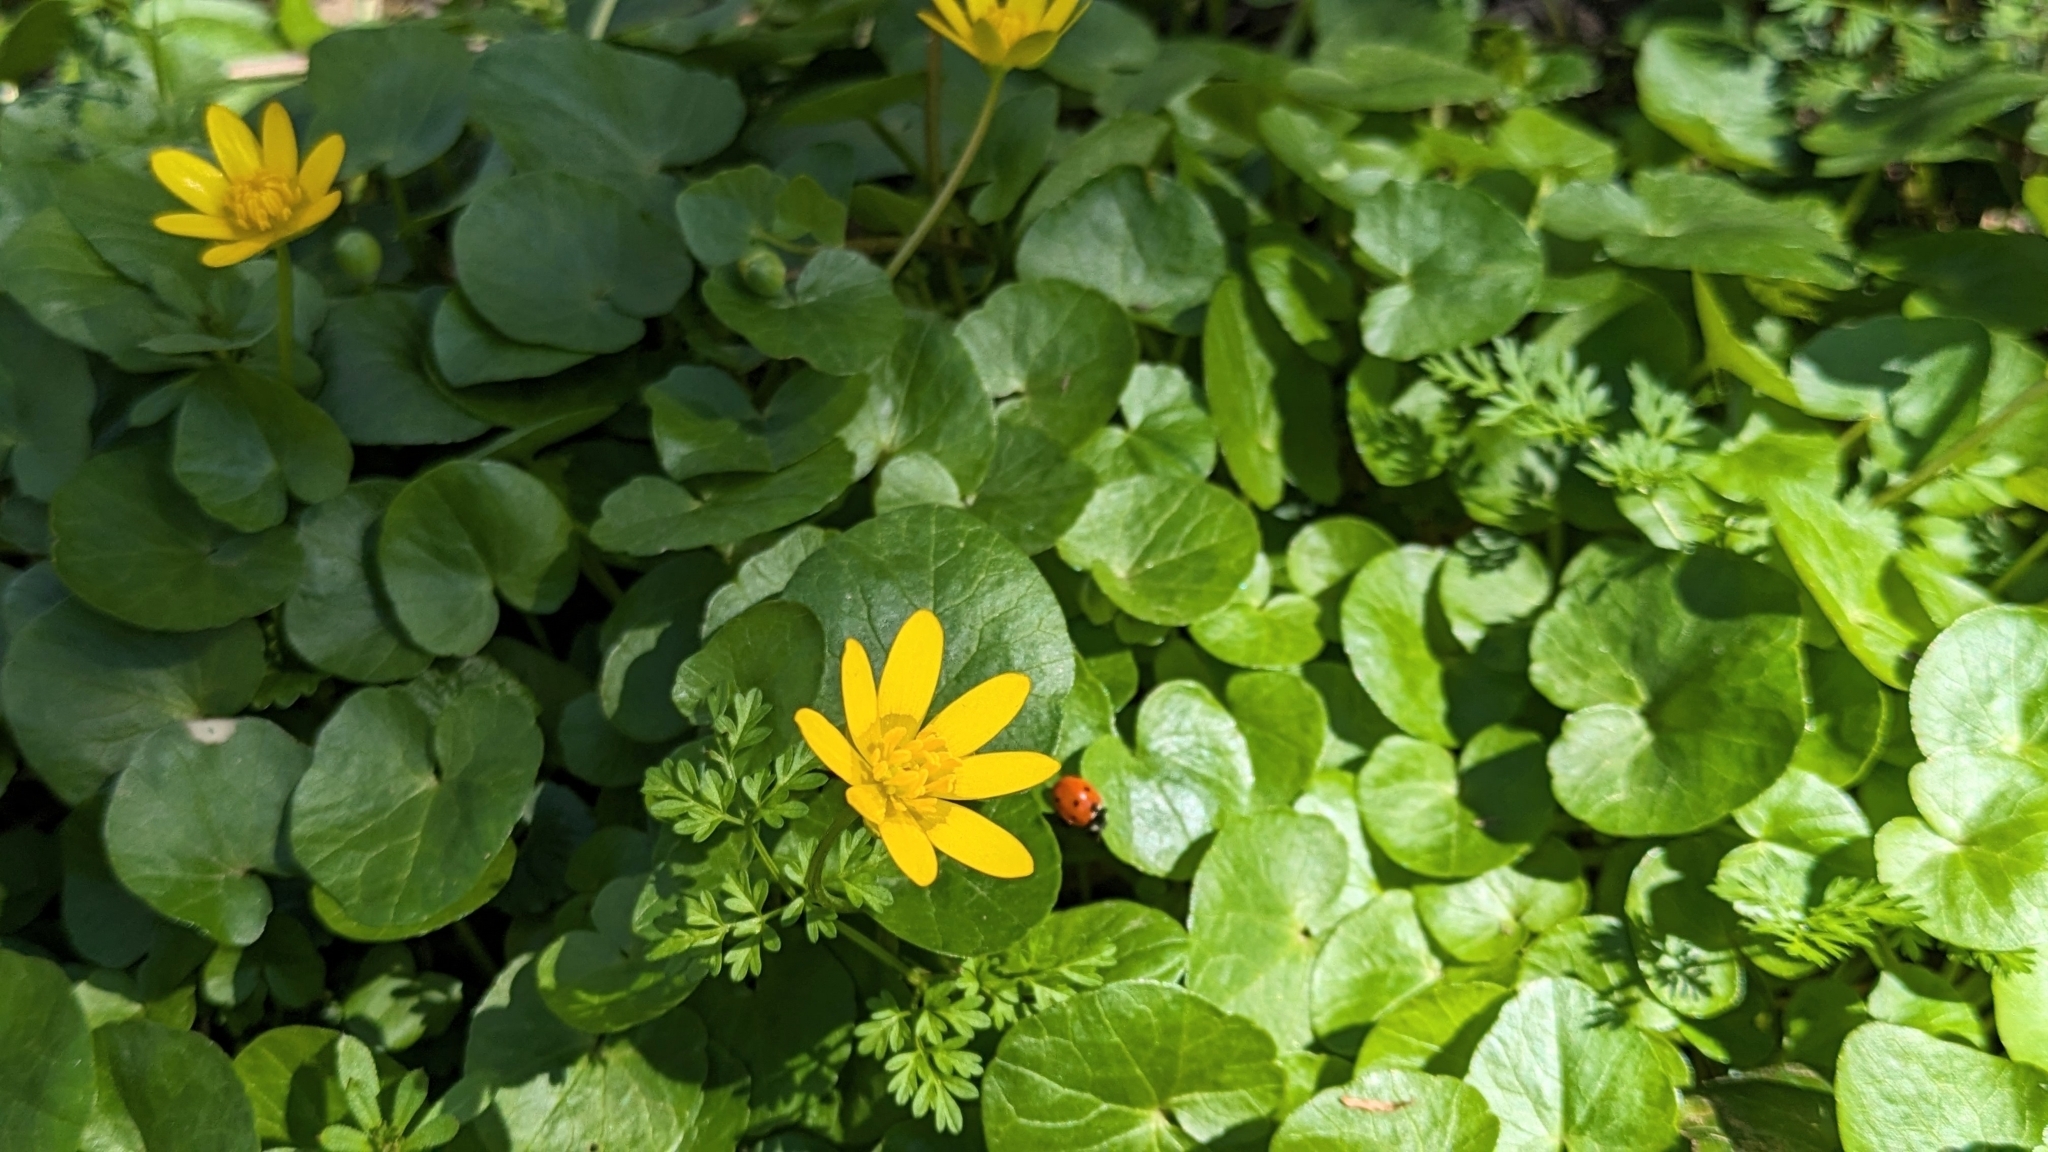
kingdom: Plantae
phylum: Tracheophyta
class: Magnoliopsida
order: Ranunculales
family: Ranunculaceae
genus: Ficaria
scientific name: Ficaria verna
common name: Lesser celandine
